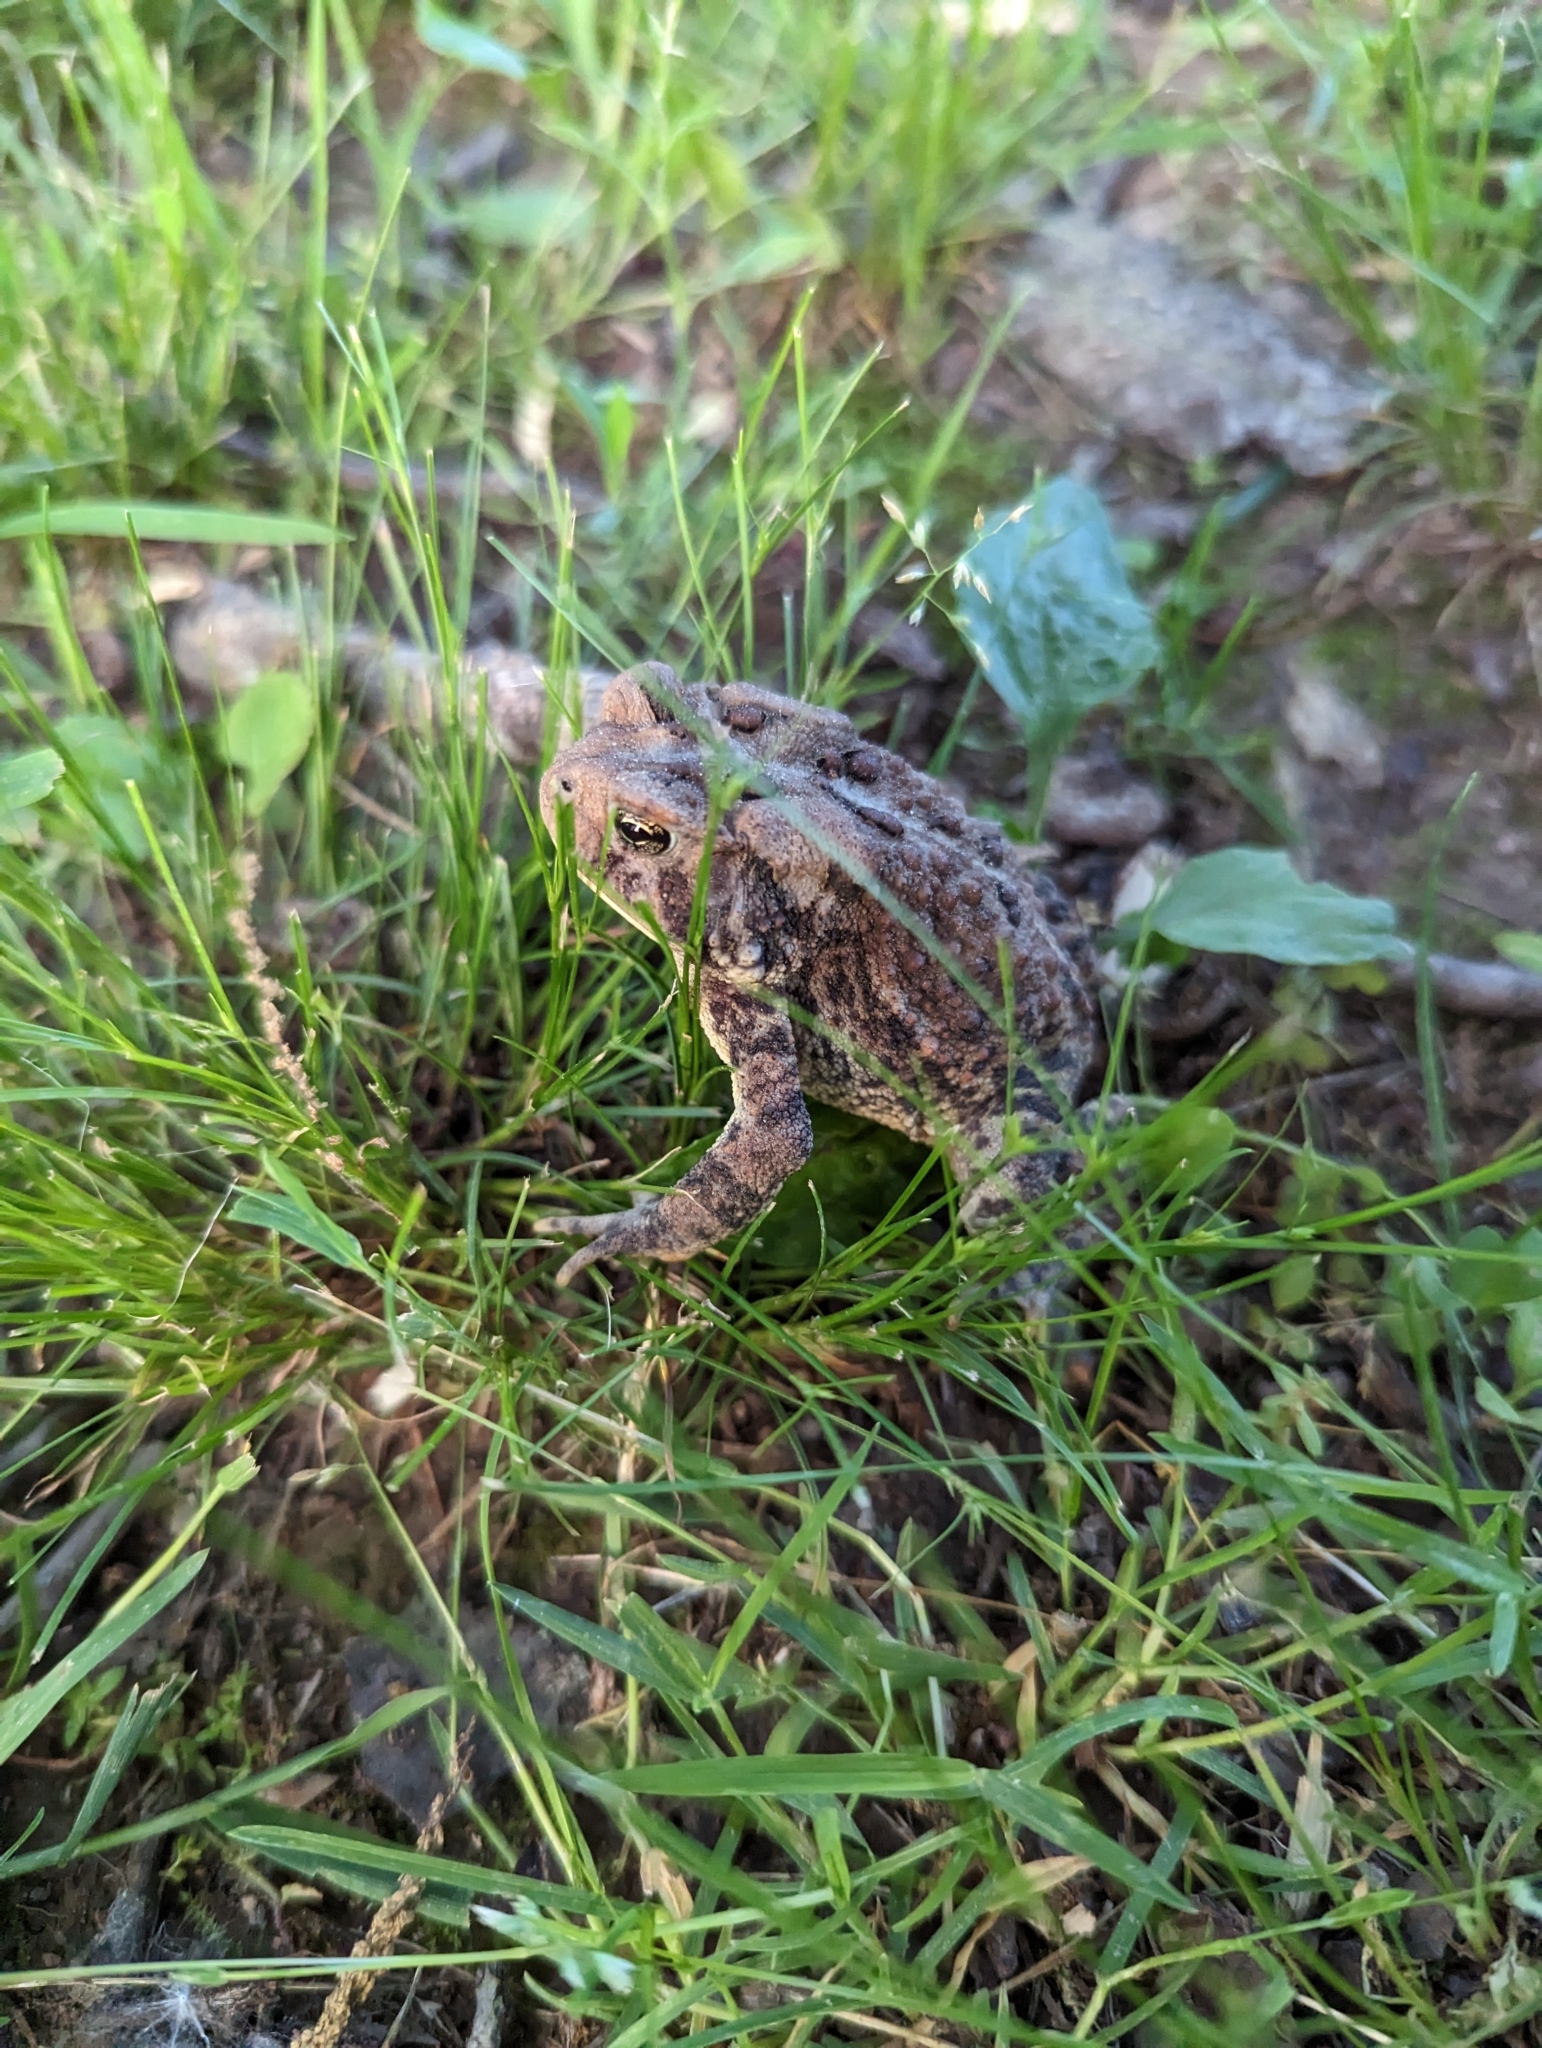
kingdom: Animalia
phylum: Chordata
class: Amphibia
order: Anura
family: Bufonidae
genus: Anaxyrus
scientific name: Anaxyrus americanus
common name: American toad
